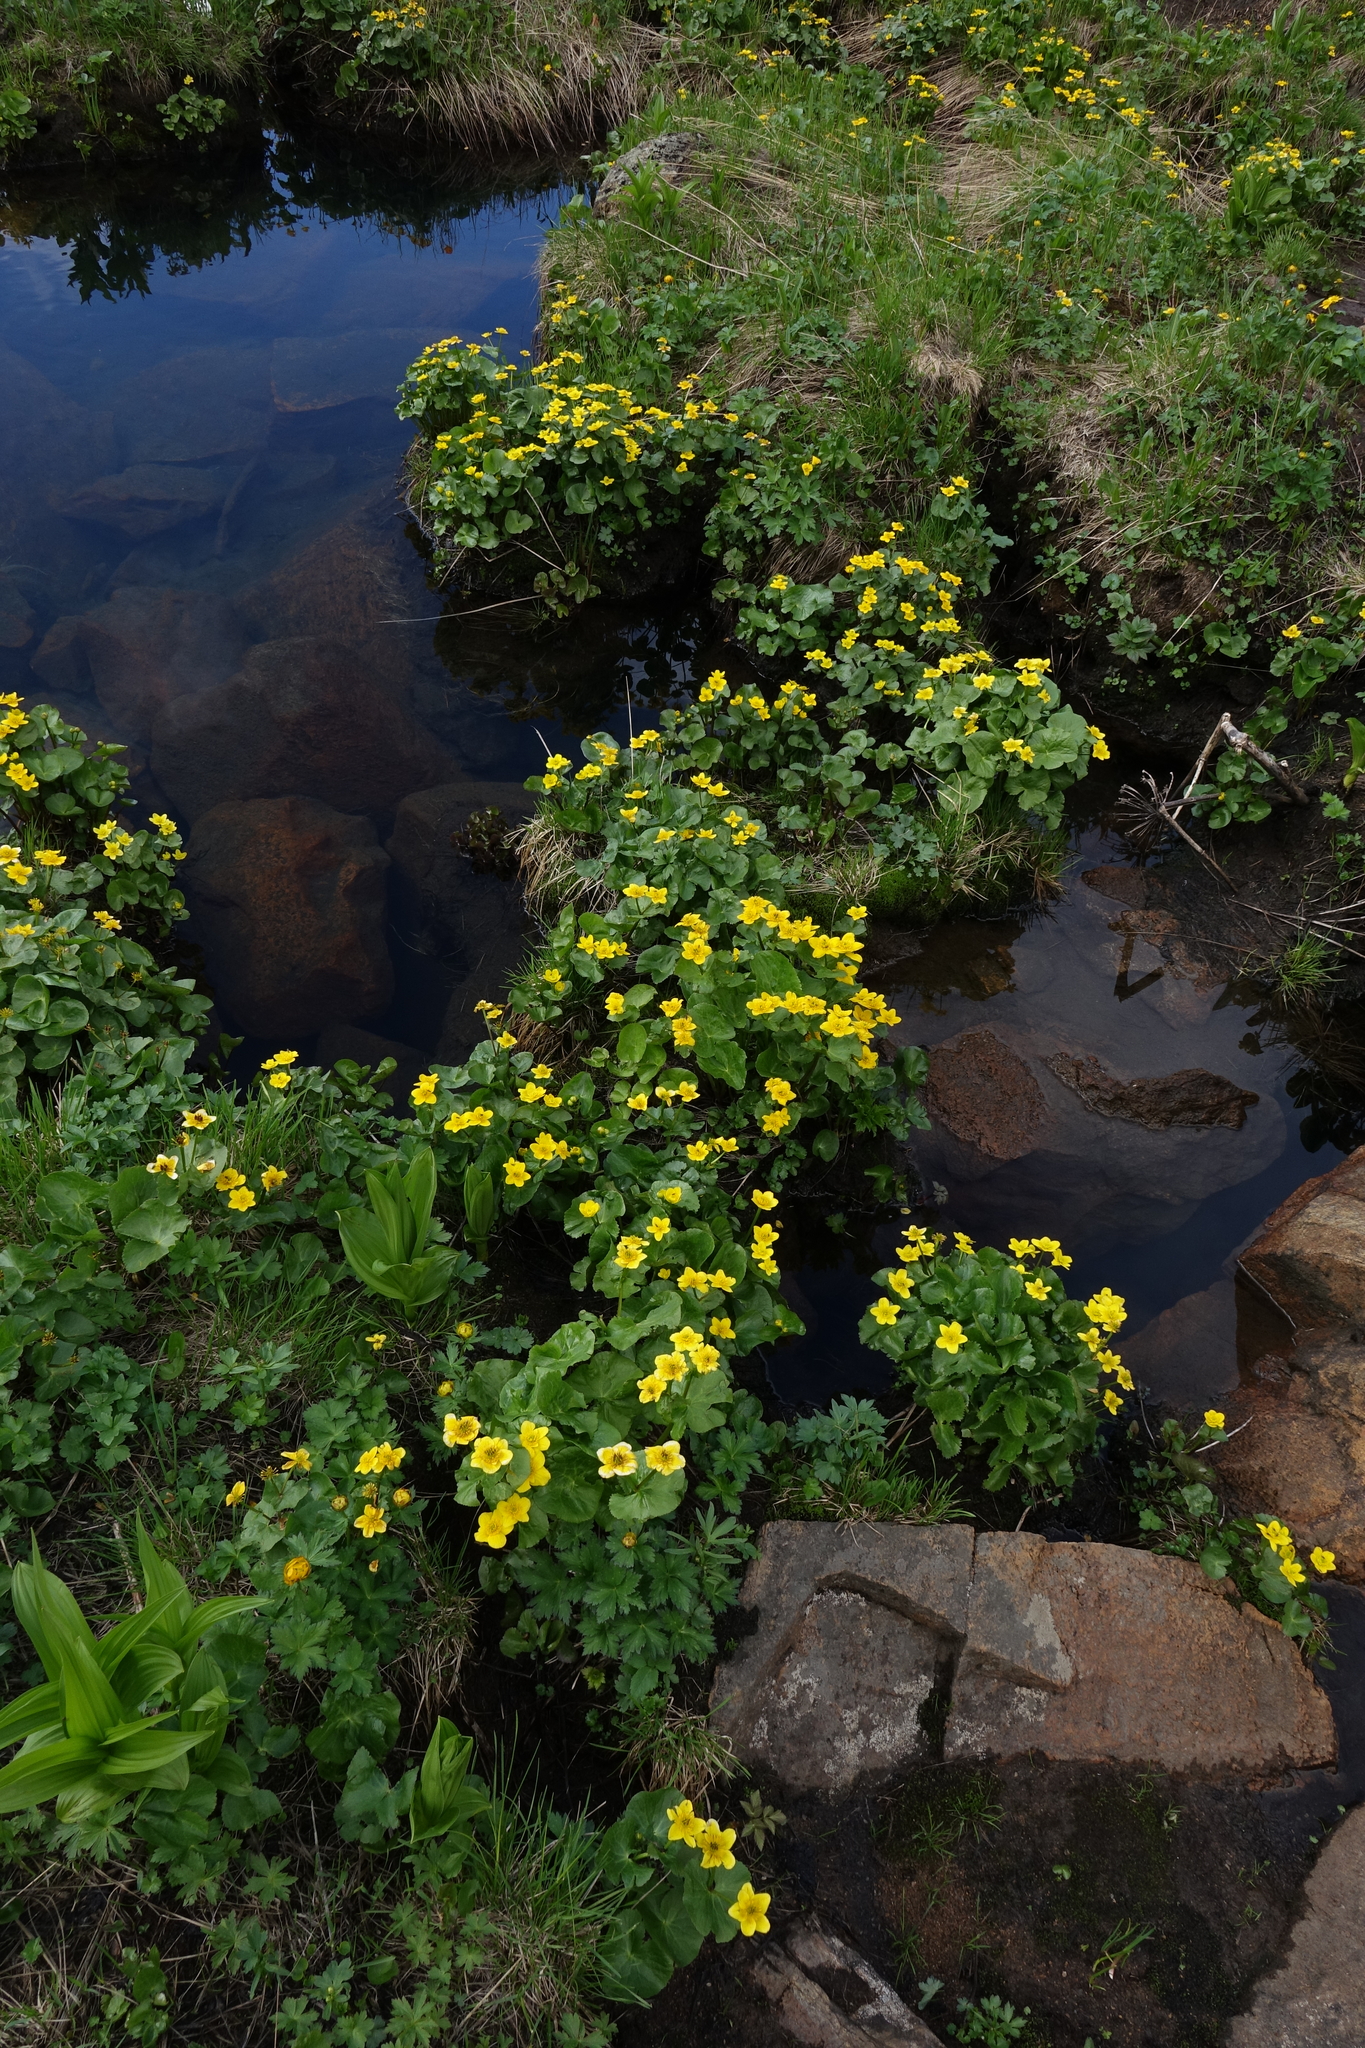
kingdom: Plantae
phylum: Tracheophyta
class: Magnoliopsida
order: Ranunculales
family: Ranunculaceae
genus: Caltha
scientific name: Caltha palustris
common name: Marsh marigold
